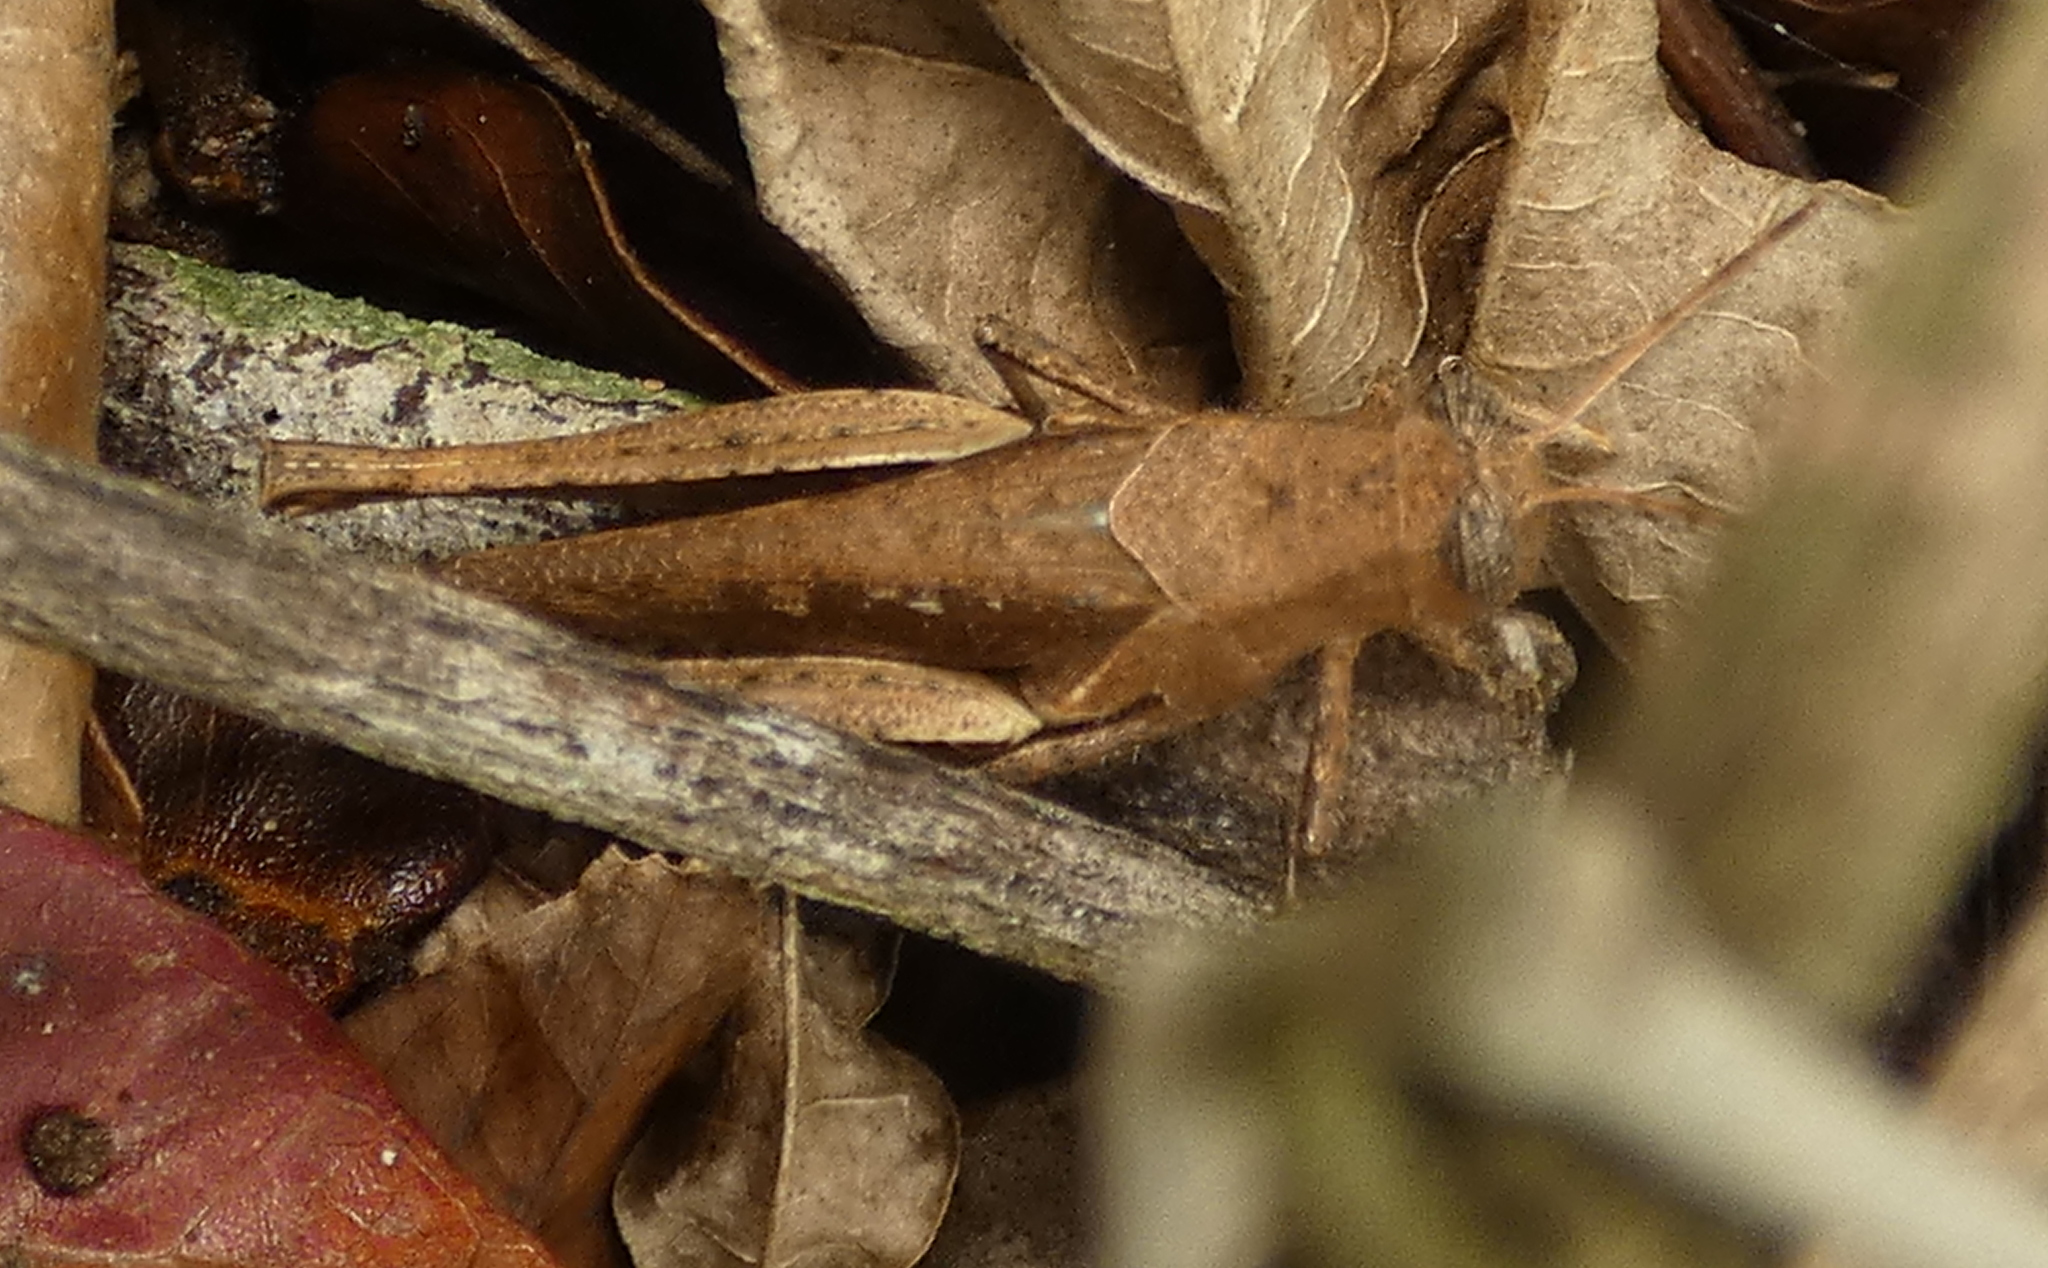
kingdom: Animalia
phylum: Arthropoda
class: Insecta
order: Orthoptera
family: Acrididae
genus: Abracris
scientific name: Abracris flavolineata
